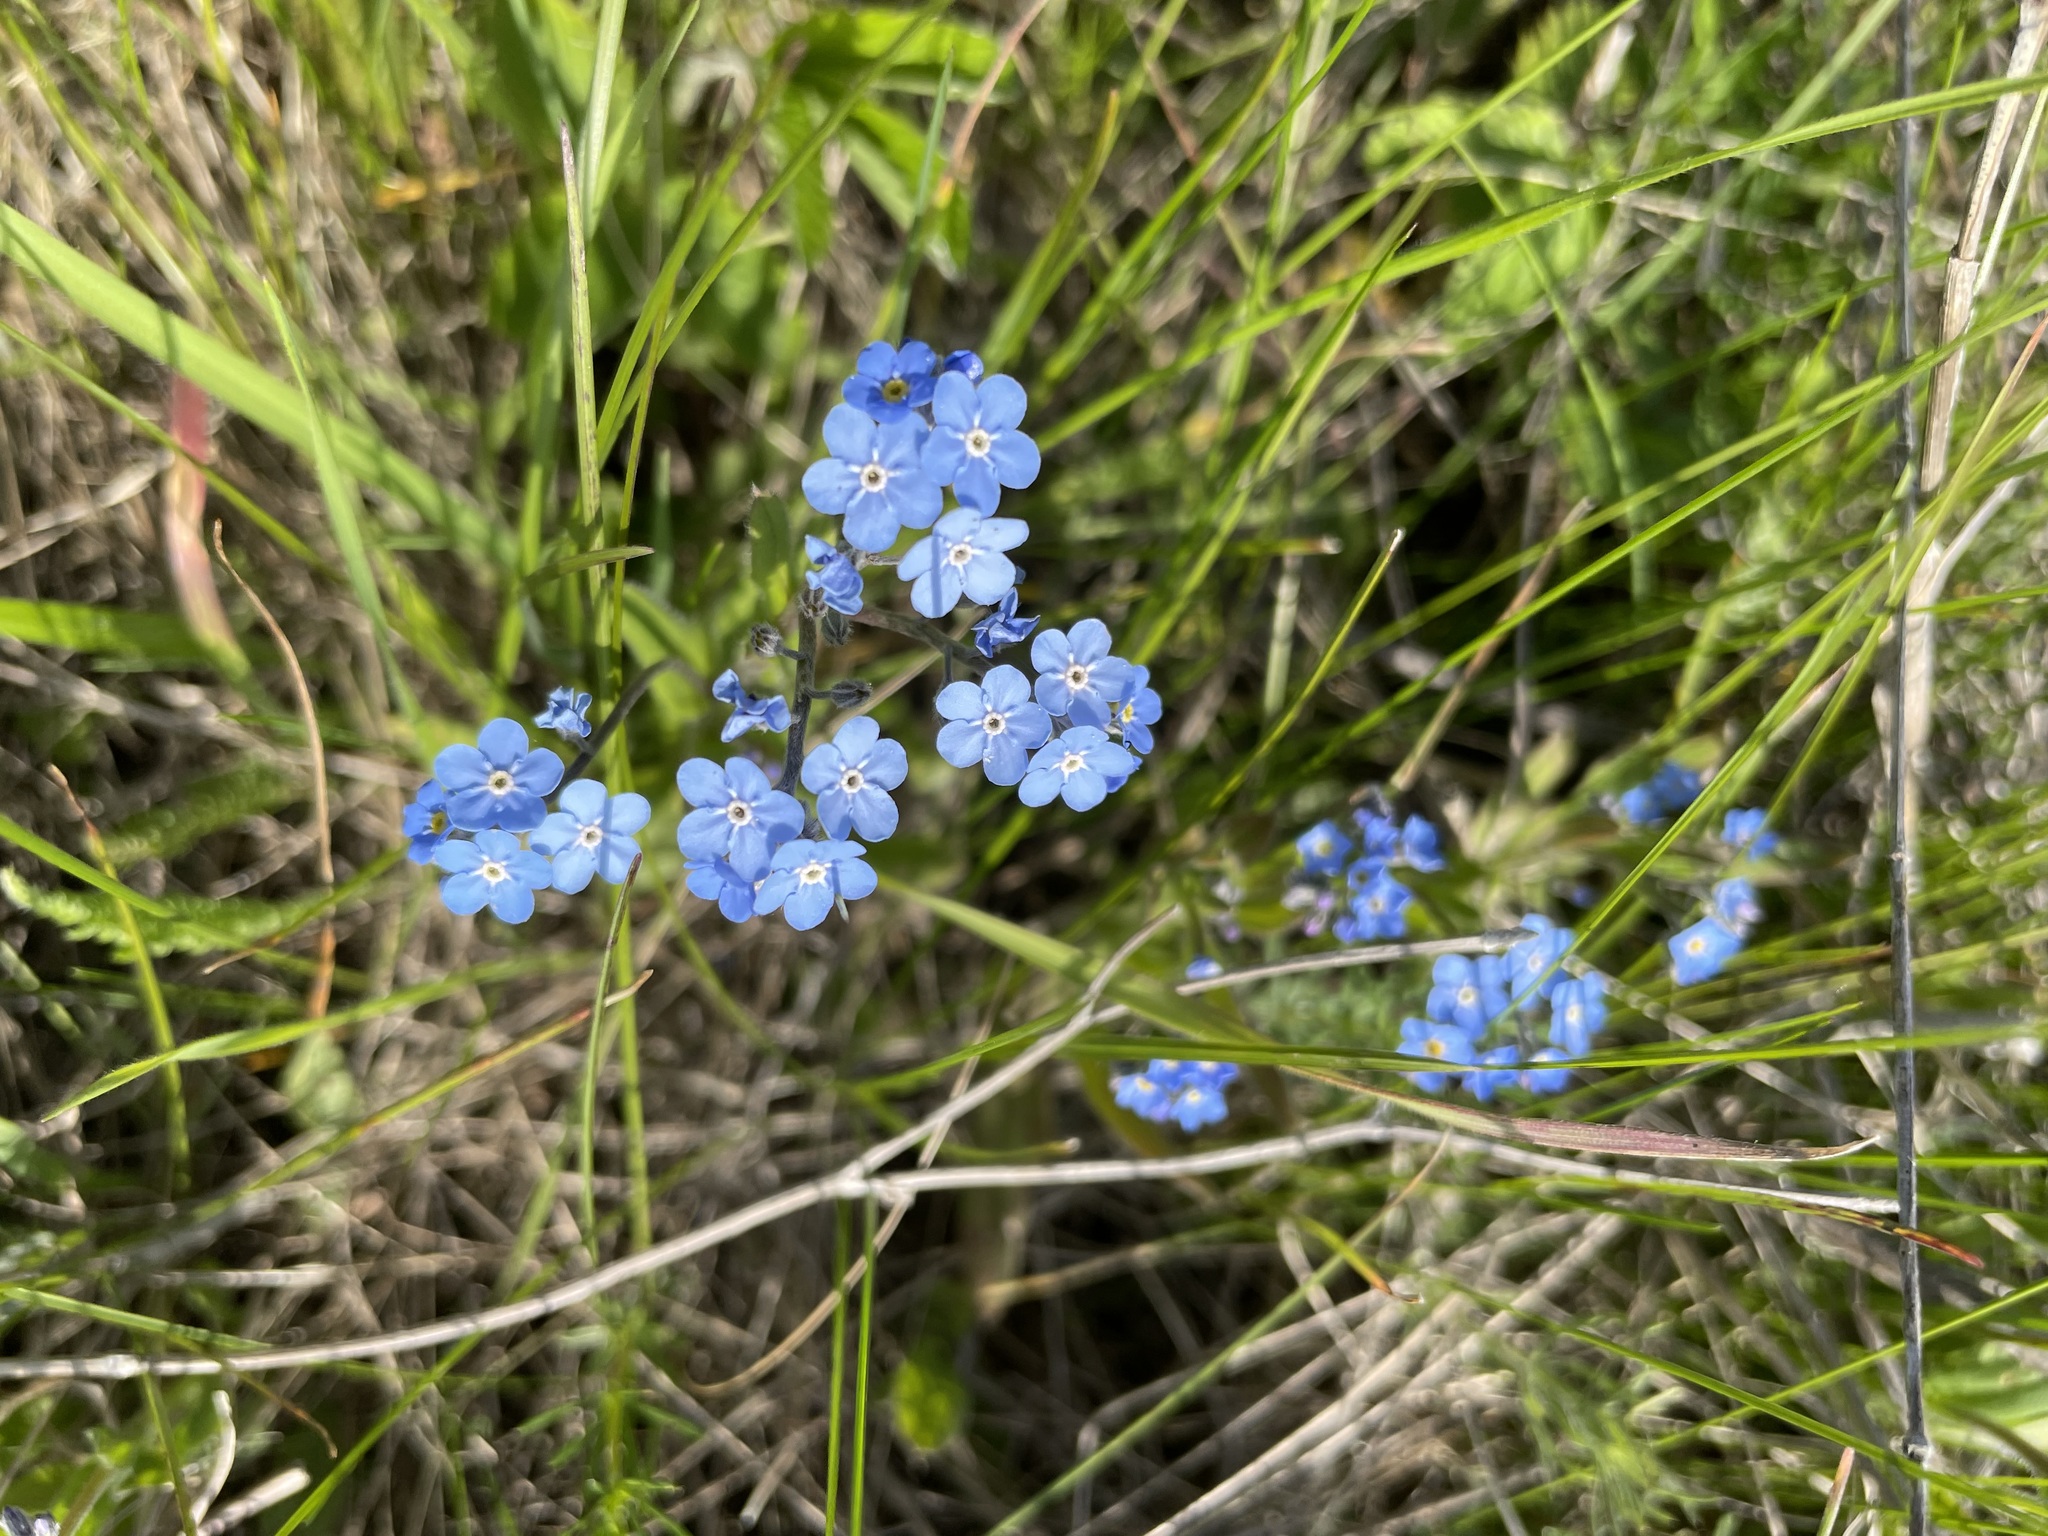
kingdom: Plantae
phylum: Tracheophyta
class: Magnoliopsida
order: Boraginales
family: Boraginaceae
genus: Myosotis
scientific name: Myosotis alpestris
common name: Alpine forget-me-not
